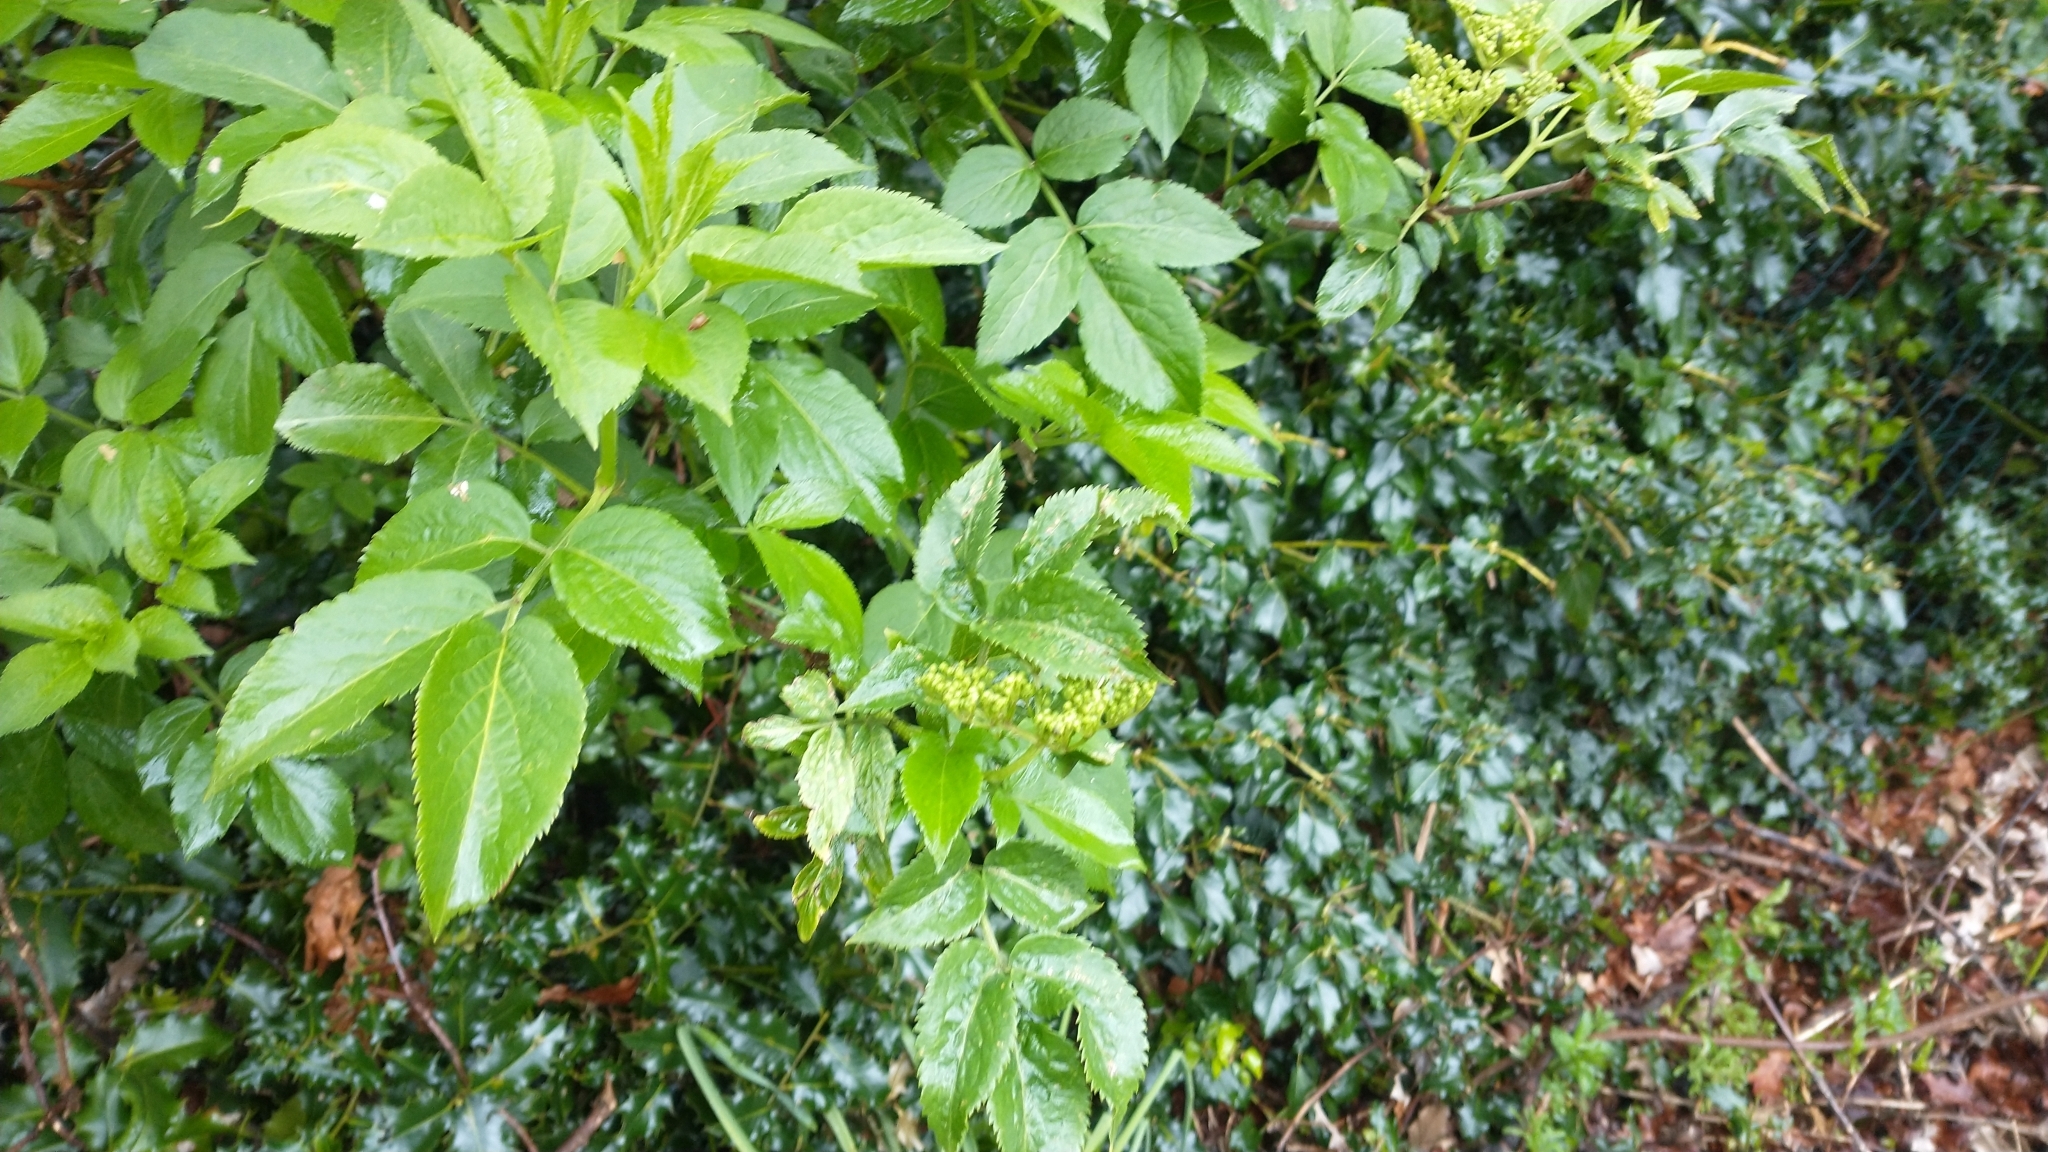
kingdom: Plantae
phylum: Tracheophyta
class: Magnoliopsida
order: Dipsacales
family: Viburnaceae
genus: Sambucus
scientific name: Sambucus nigra
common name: Elder
